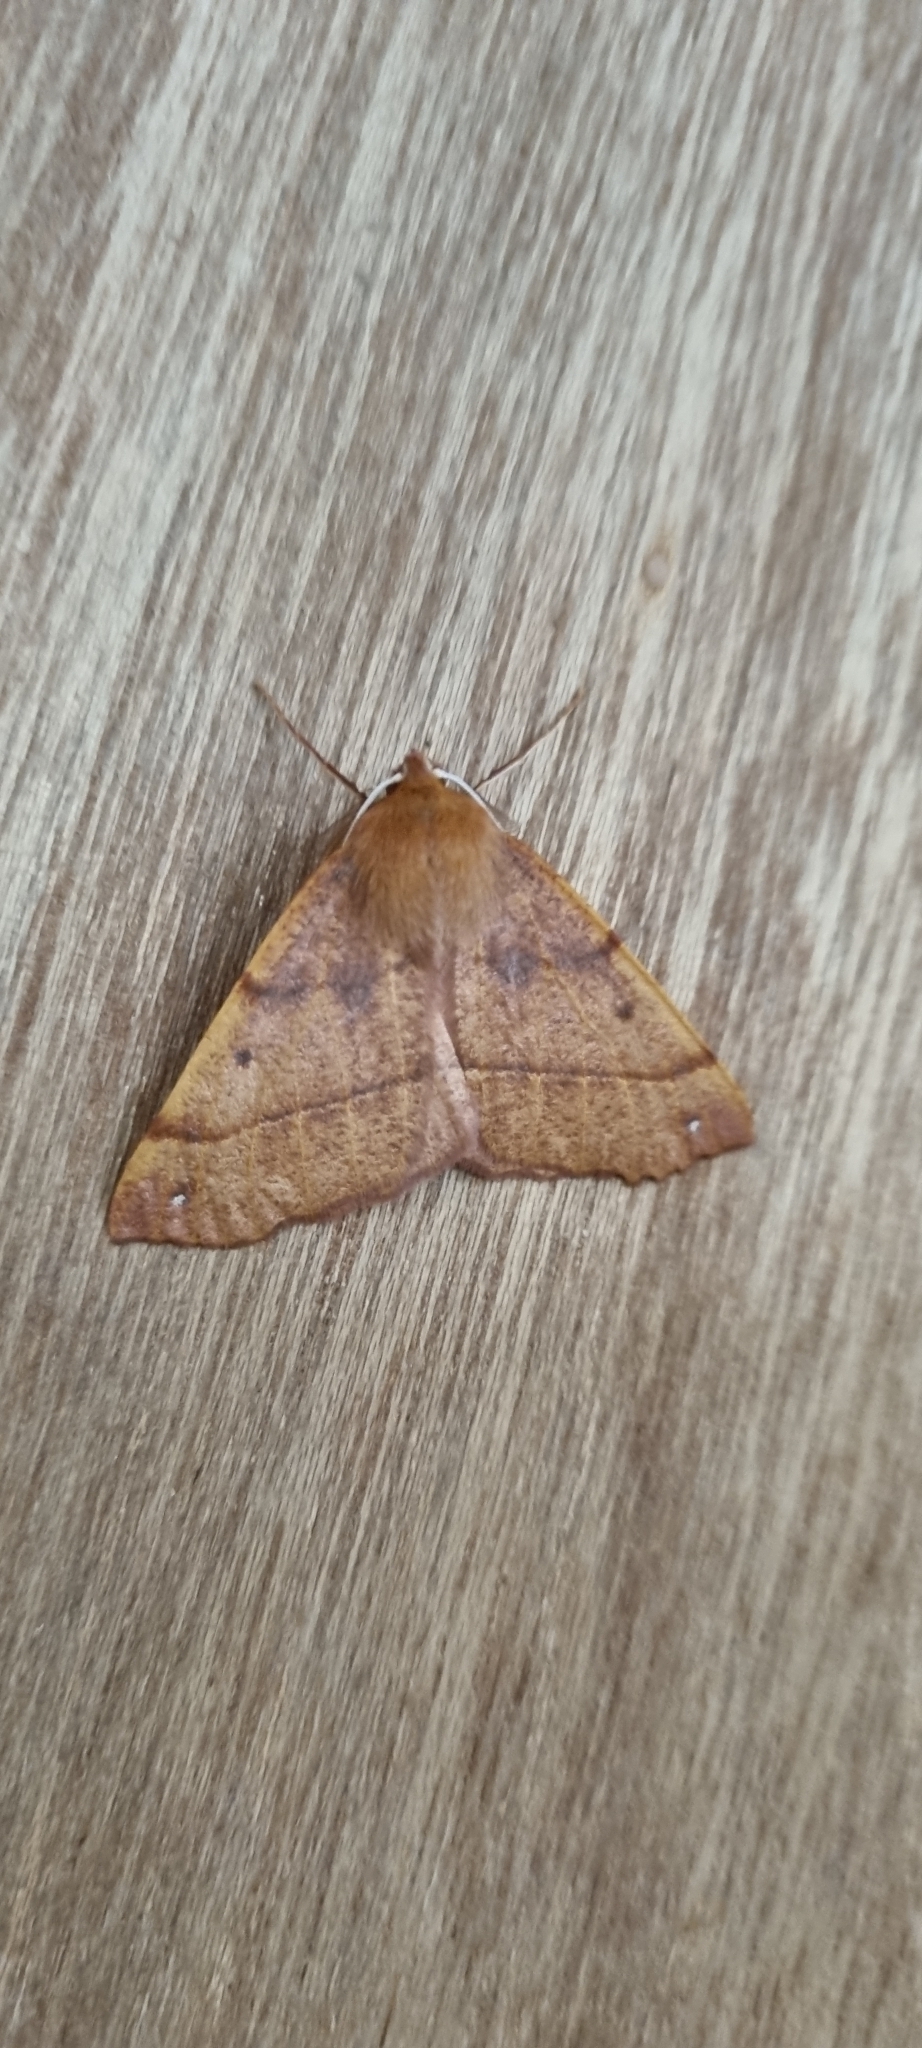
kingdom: Animalia
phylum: Arthropoda
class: Insecta
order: Lepidoptera
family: Geometridae
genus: Colotois
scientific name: Colotois pennaria
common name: Feathered thorn
